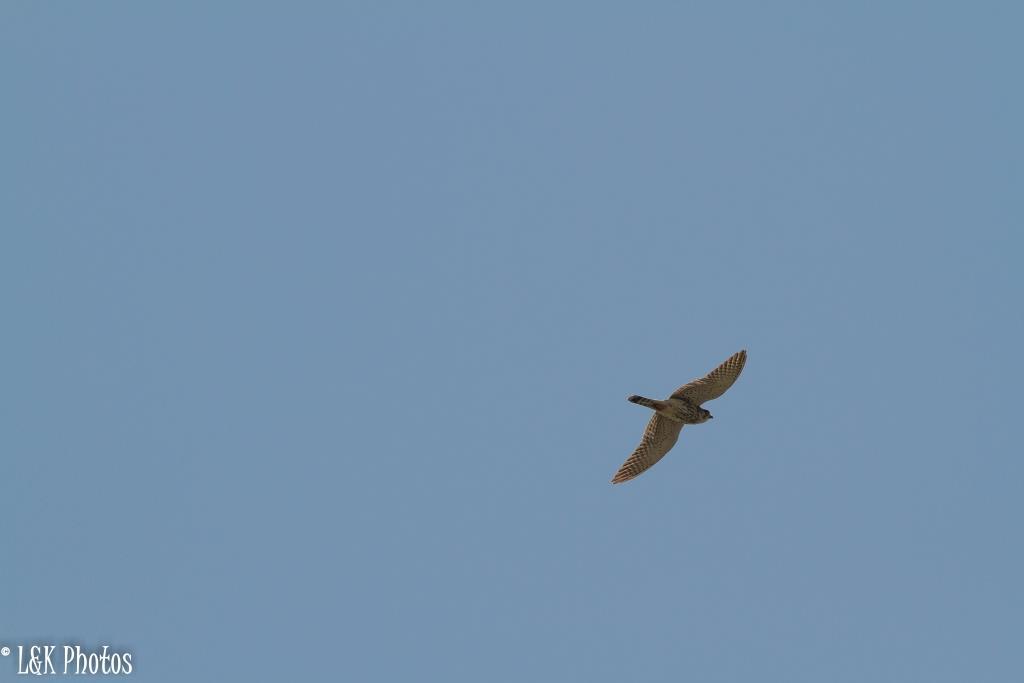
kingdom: Animalia
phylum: Chordata
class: Aves
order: Falconiformes
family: Falconidae
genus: Falco
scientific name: Falco newtoni
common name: Malagasy kestrel
